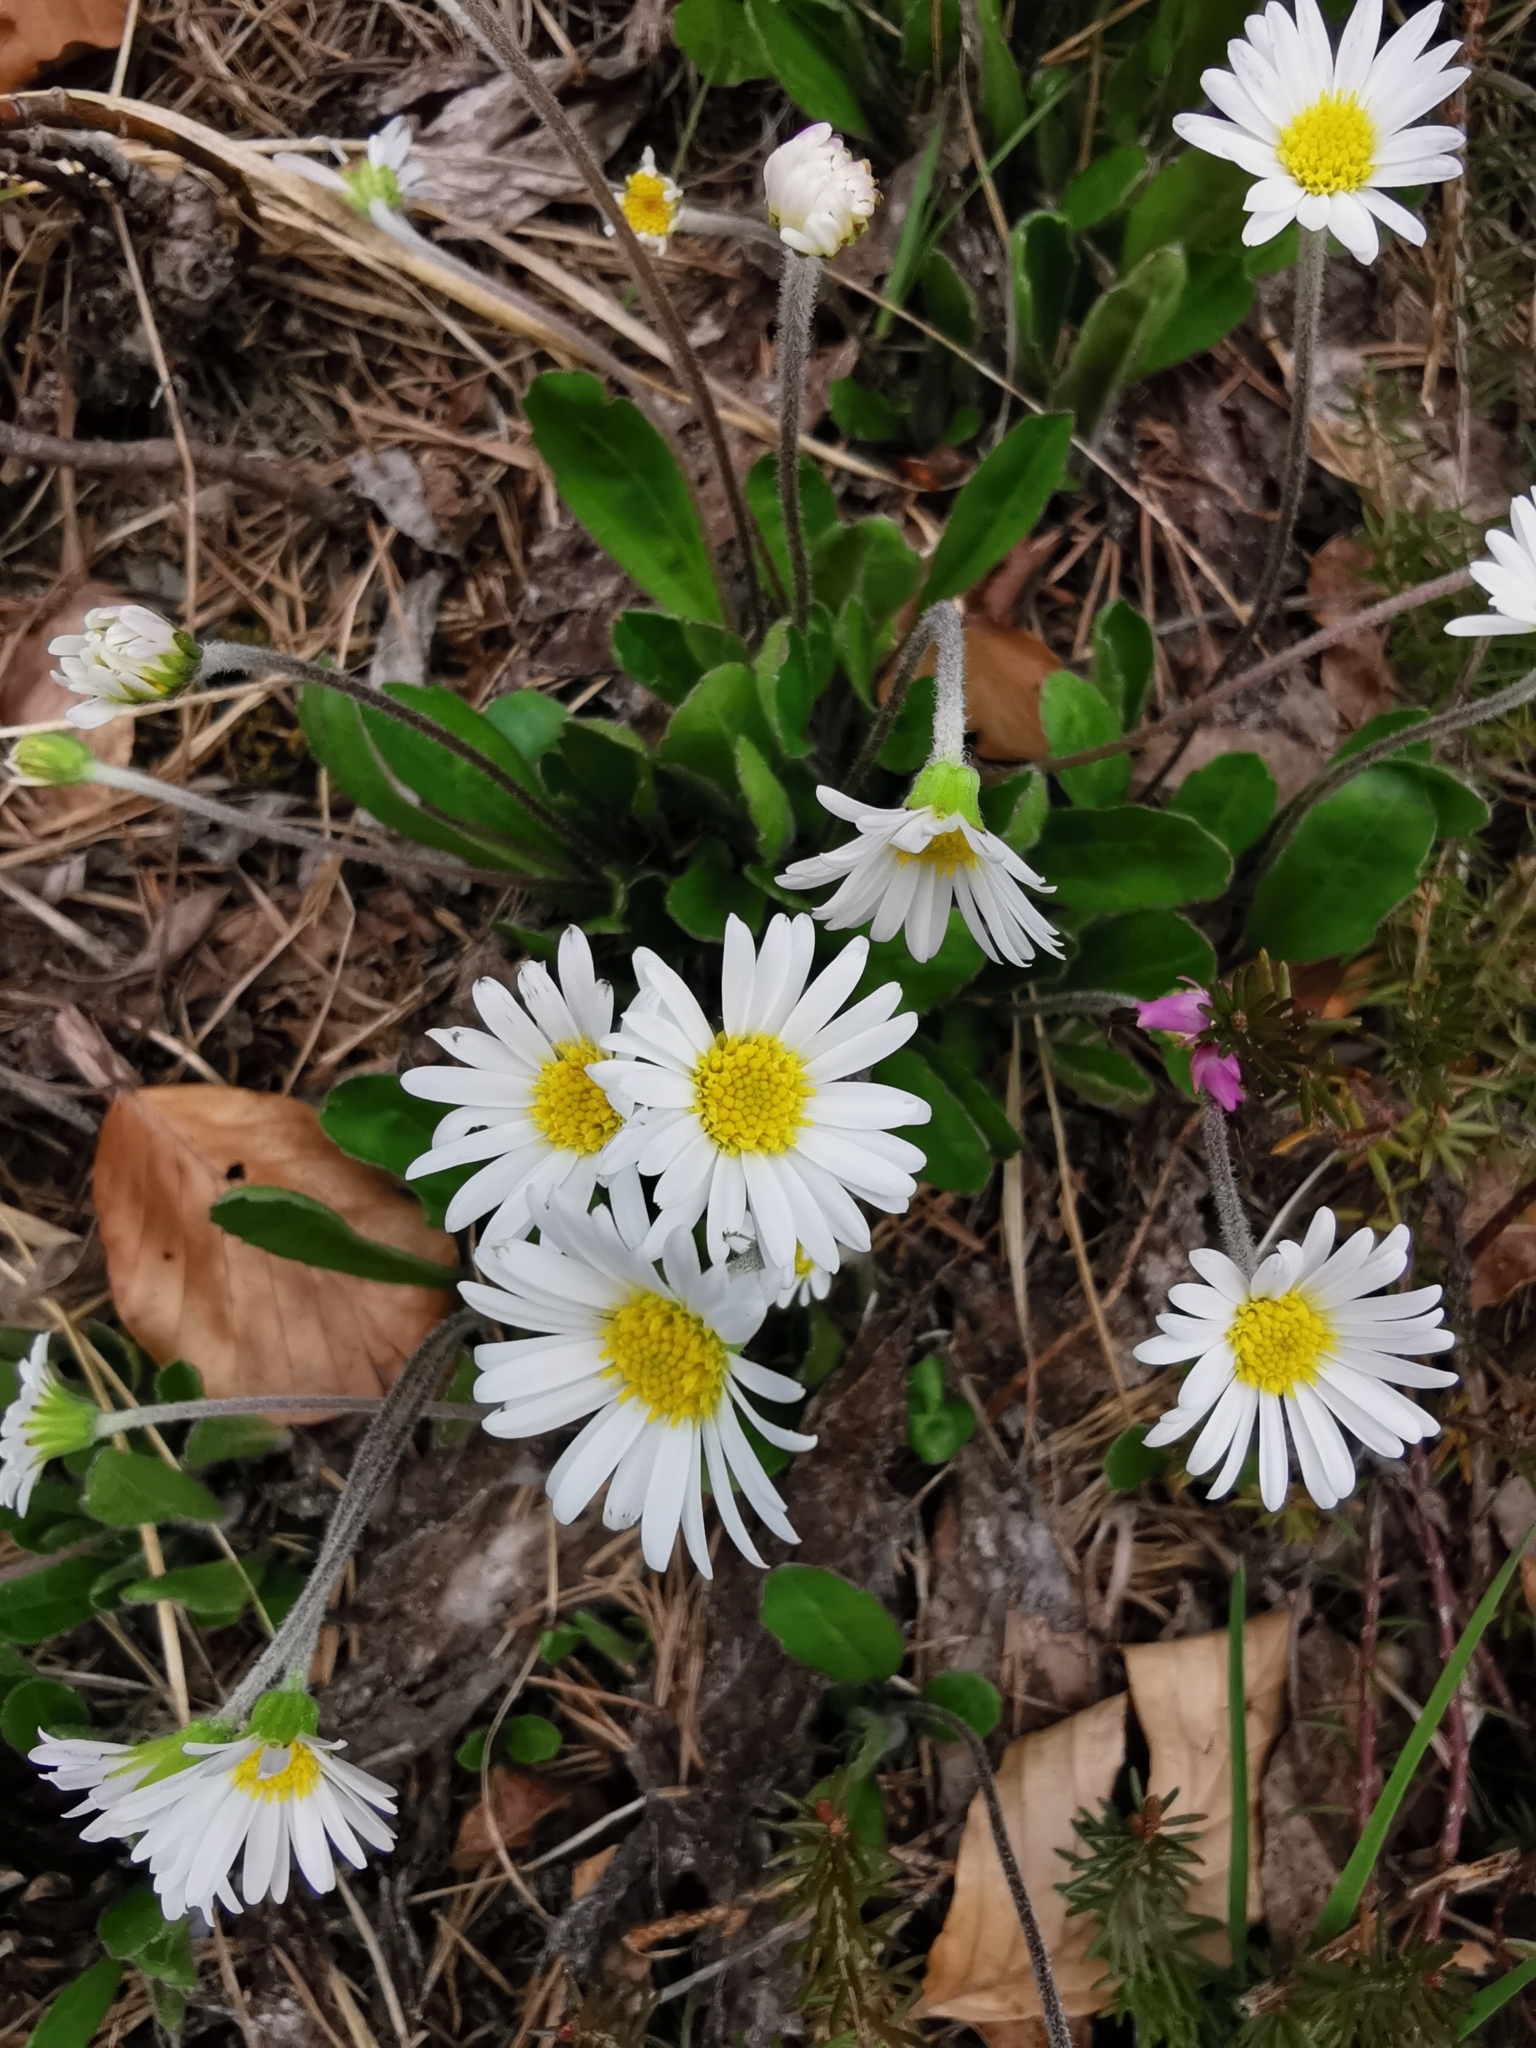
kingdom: Plantae
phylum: Tracheophyta
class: Magnoliopsida
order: Asterales
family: Asteraceae
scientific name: Asteraceae
